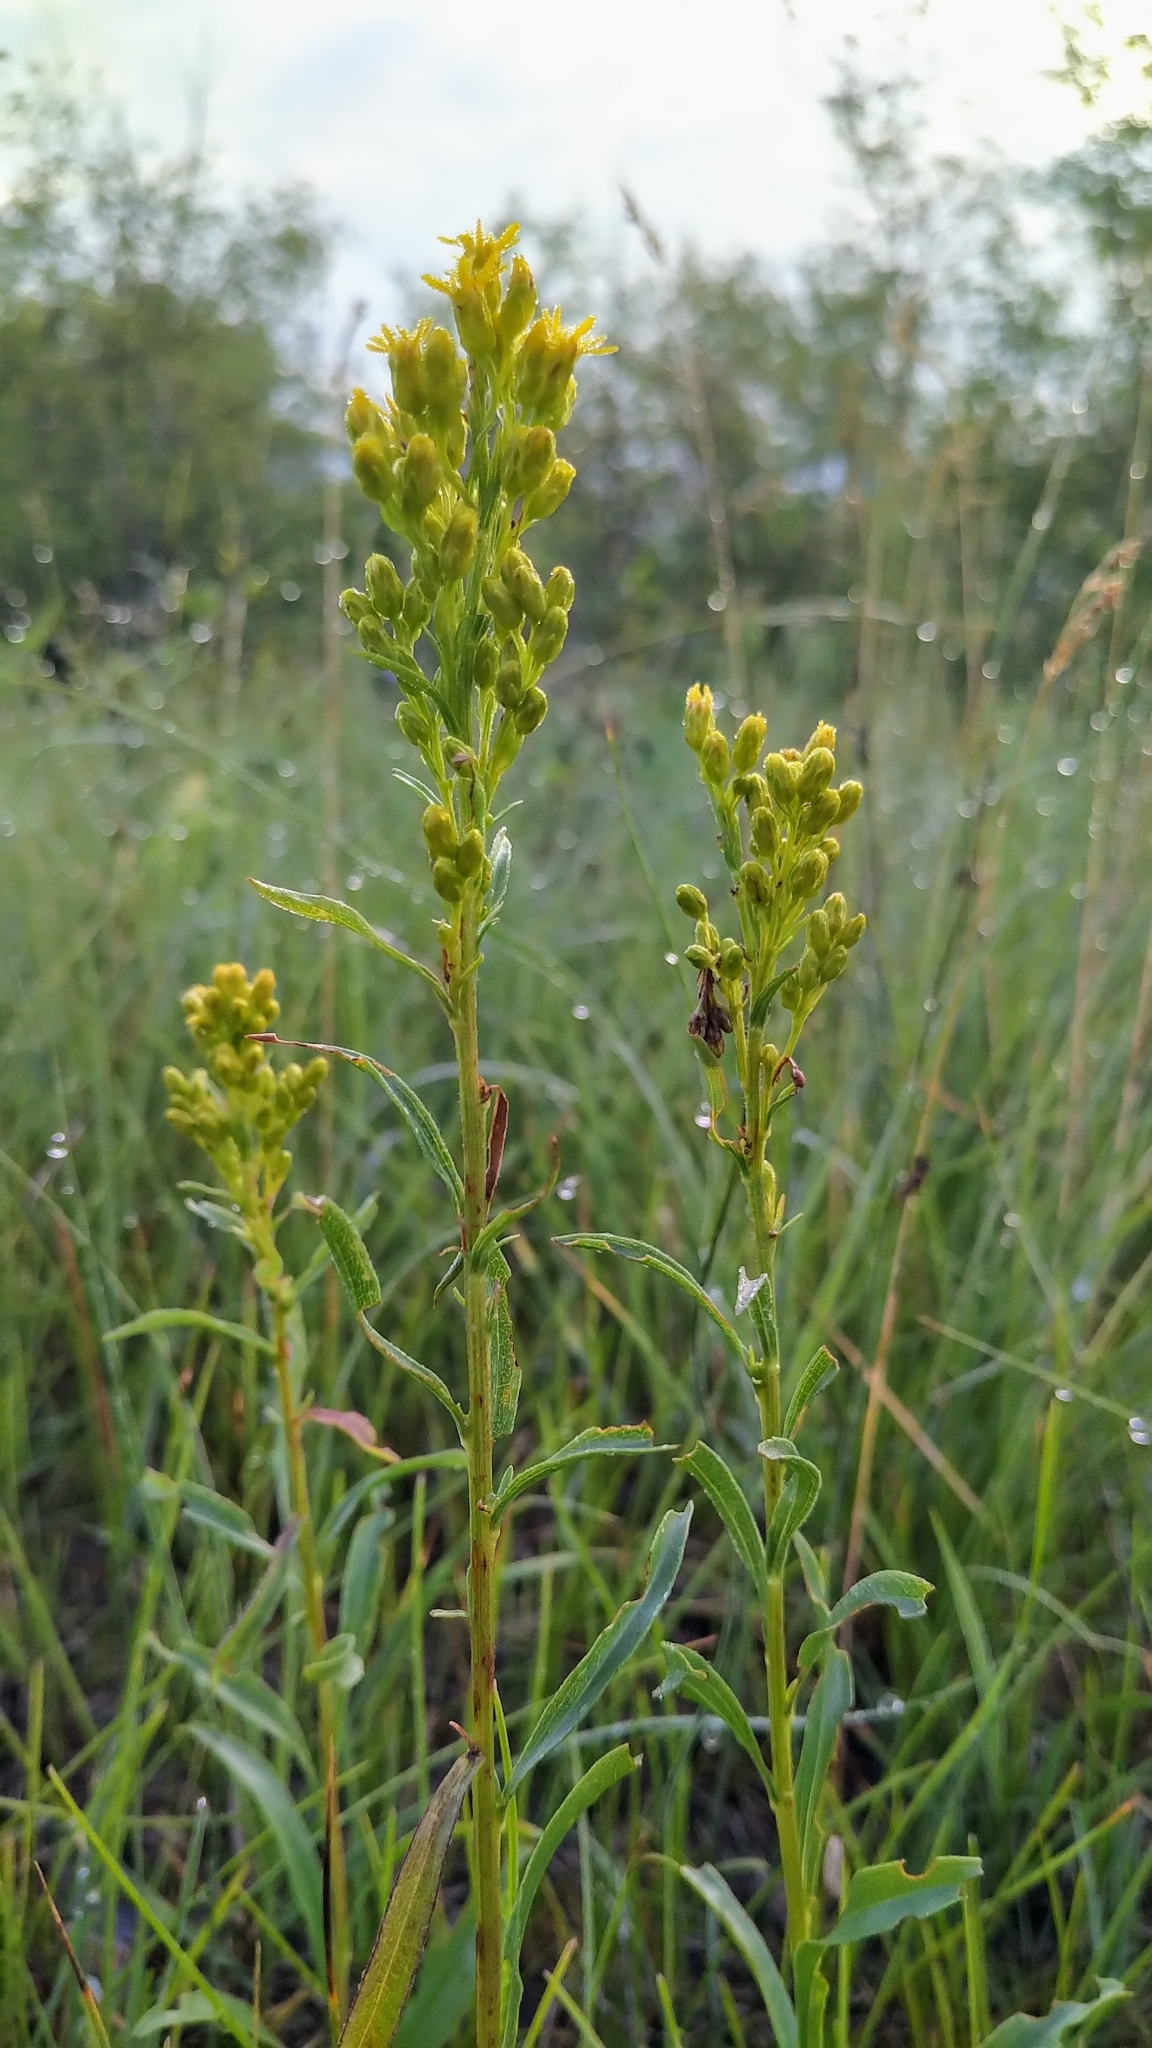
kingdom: Plantae
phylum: Tracheophyta
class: Magnoliopsida
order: Asterales
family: Asteraceae
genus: Solidago
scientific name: Solidago missouriensis
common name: Prairie goldenrod
